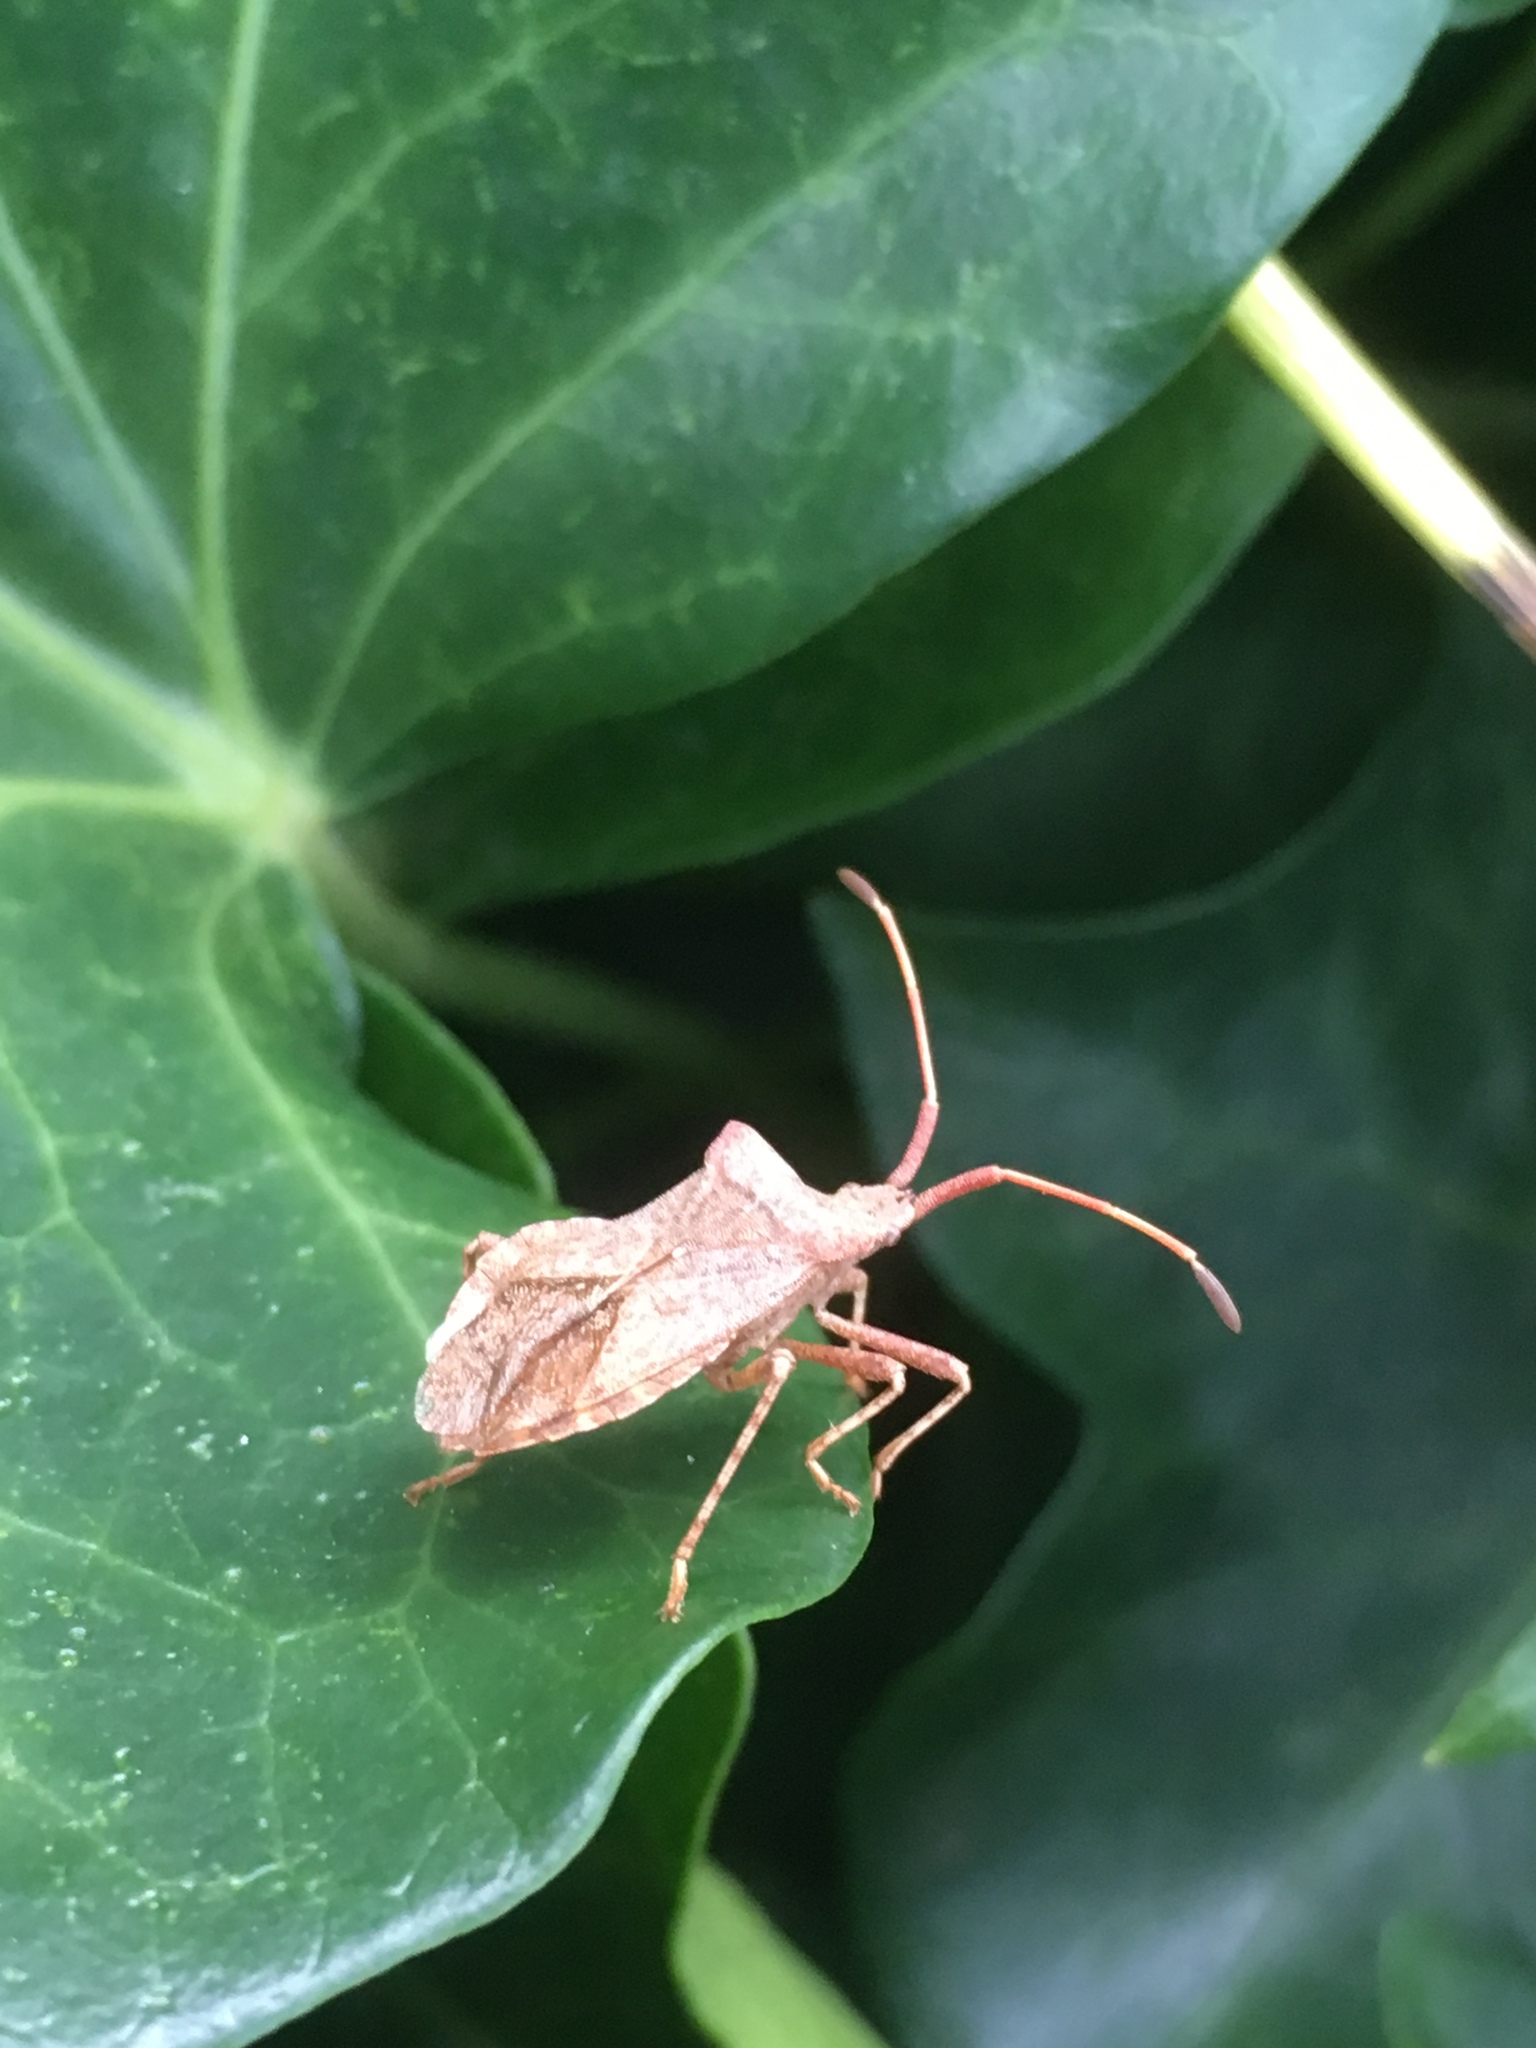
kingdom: Animalia
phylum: Arthropoda
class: Insecta
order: Hemiptera
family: Coreidae
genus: Coreus
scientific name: Coreus marginatus
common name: Dock bug
